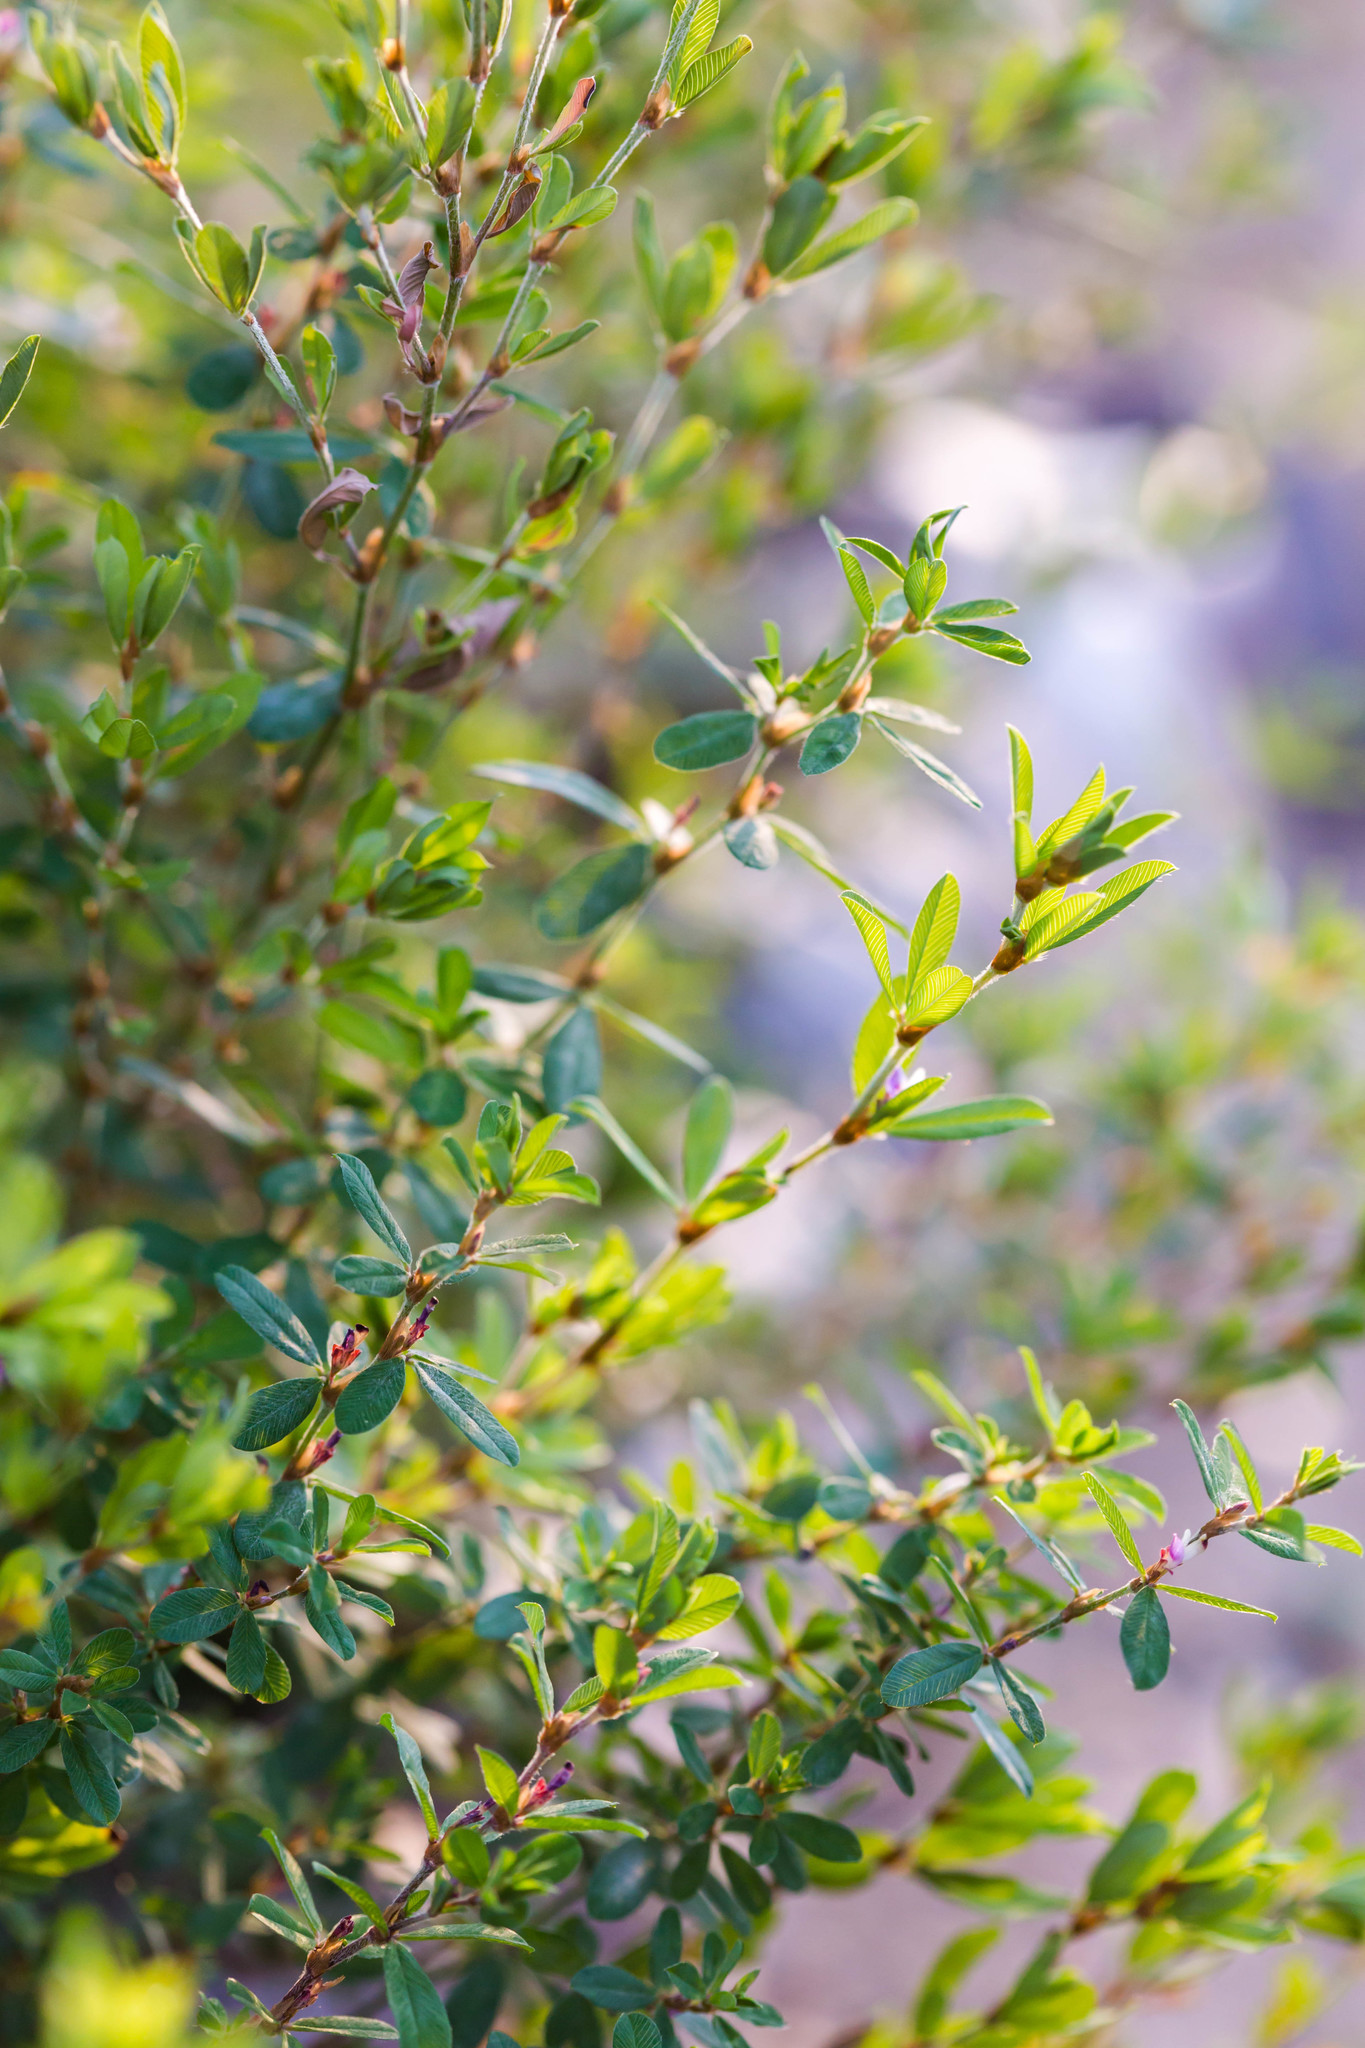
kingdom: Plantae
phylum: Tracheophyta
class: Magnoliopsida
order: Fabales
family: Fabaceae
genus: Kummerowia
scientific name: Kummerowia striata
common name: Japanese clover
